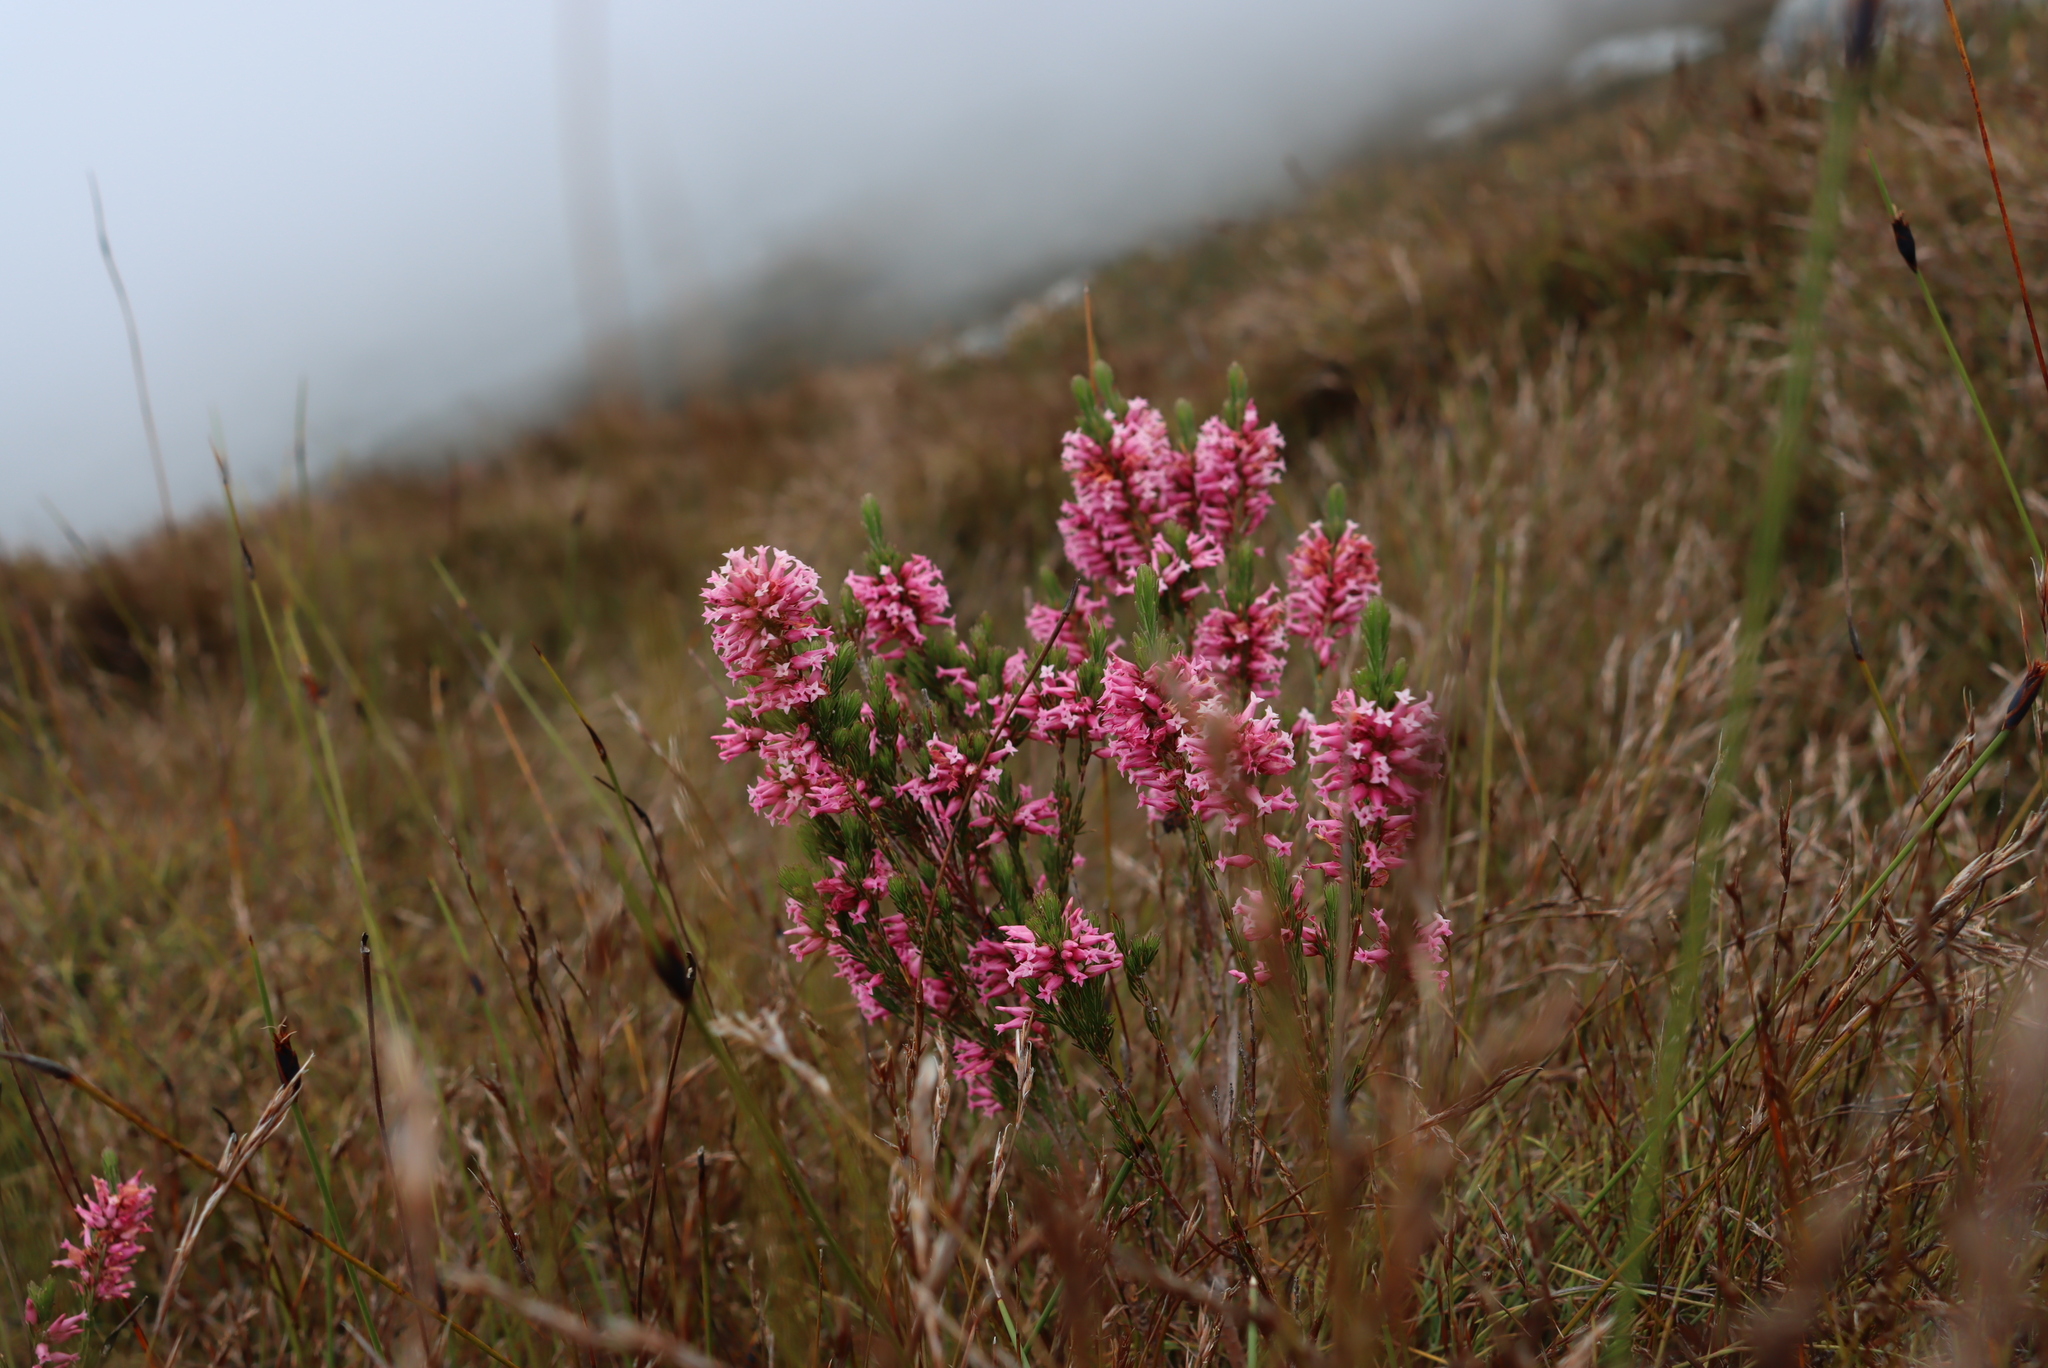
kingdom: Plantae
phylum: Tracheophyta
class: Magnoliopsida
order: Ericales
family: Ericaceae
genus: Erica
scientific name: Erica
